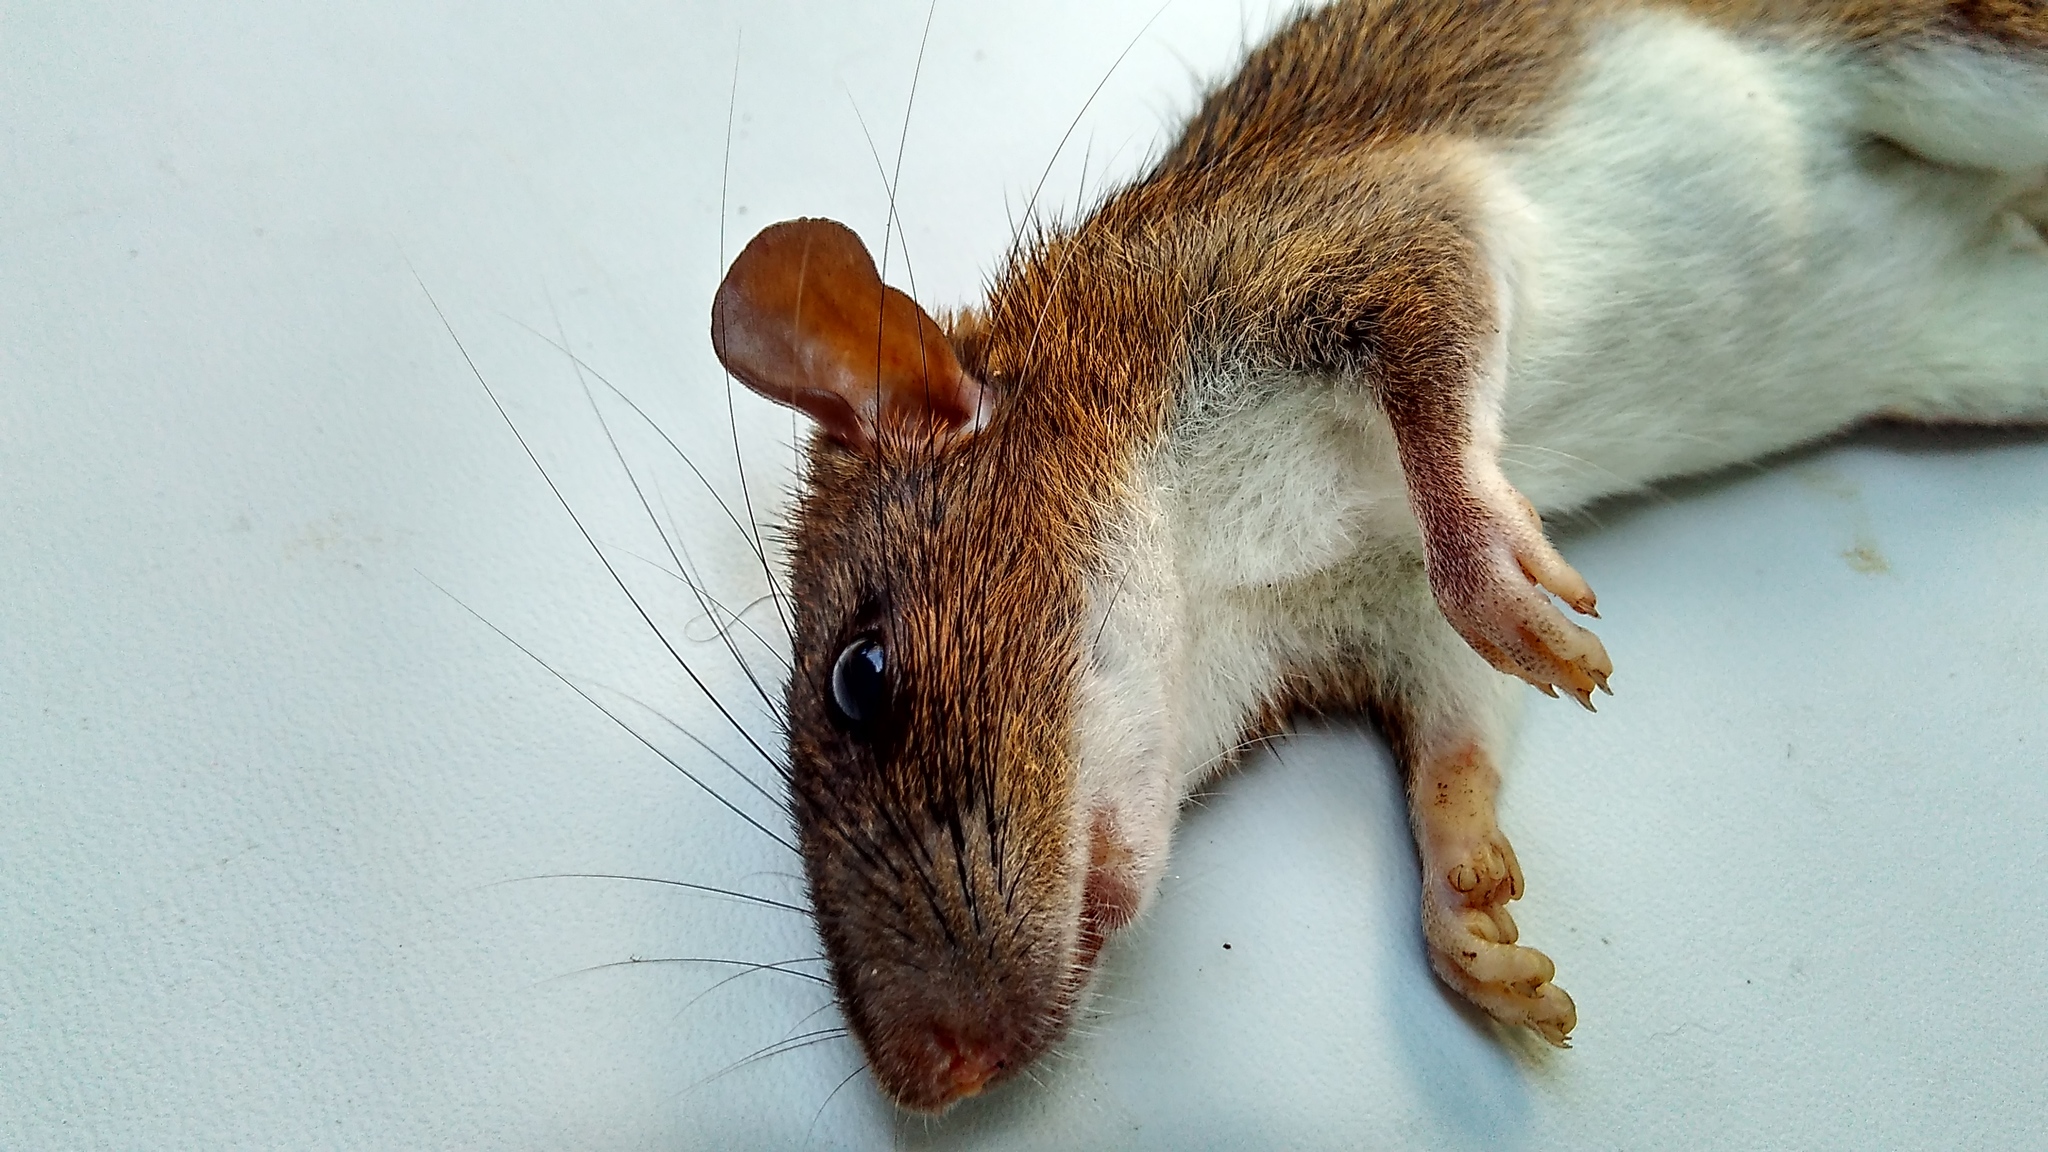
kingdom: Animalia
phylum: Chordata
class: Mammalia
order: Rodentia
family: Muridae
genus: Maxomys
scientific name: Maxomys surifer
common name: Indomalayan maxomys
